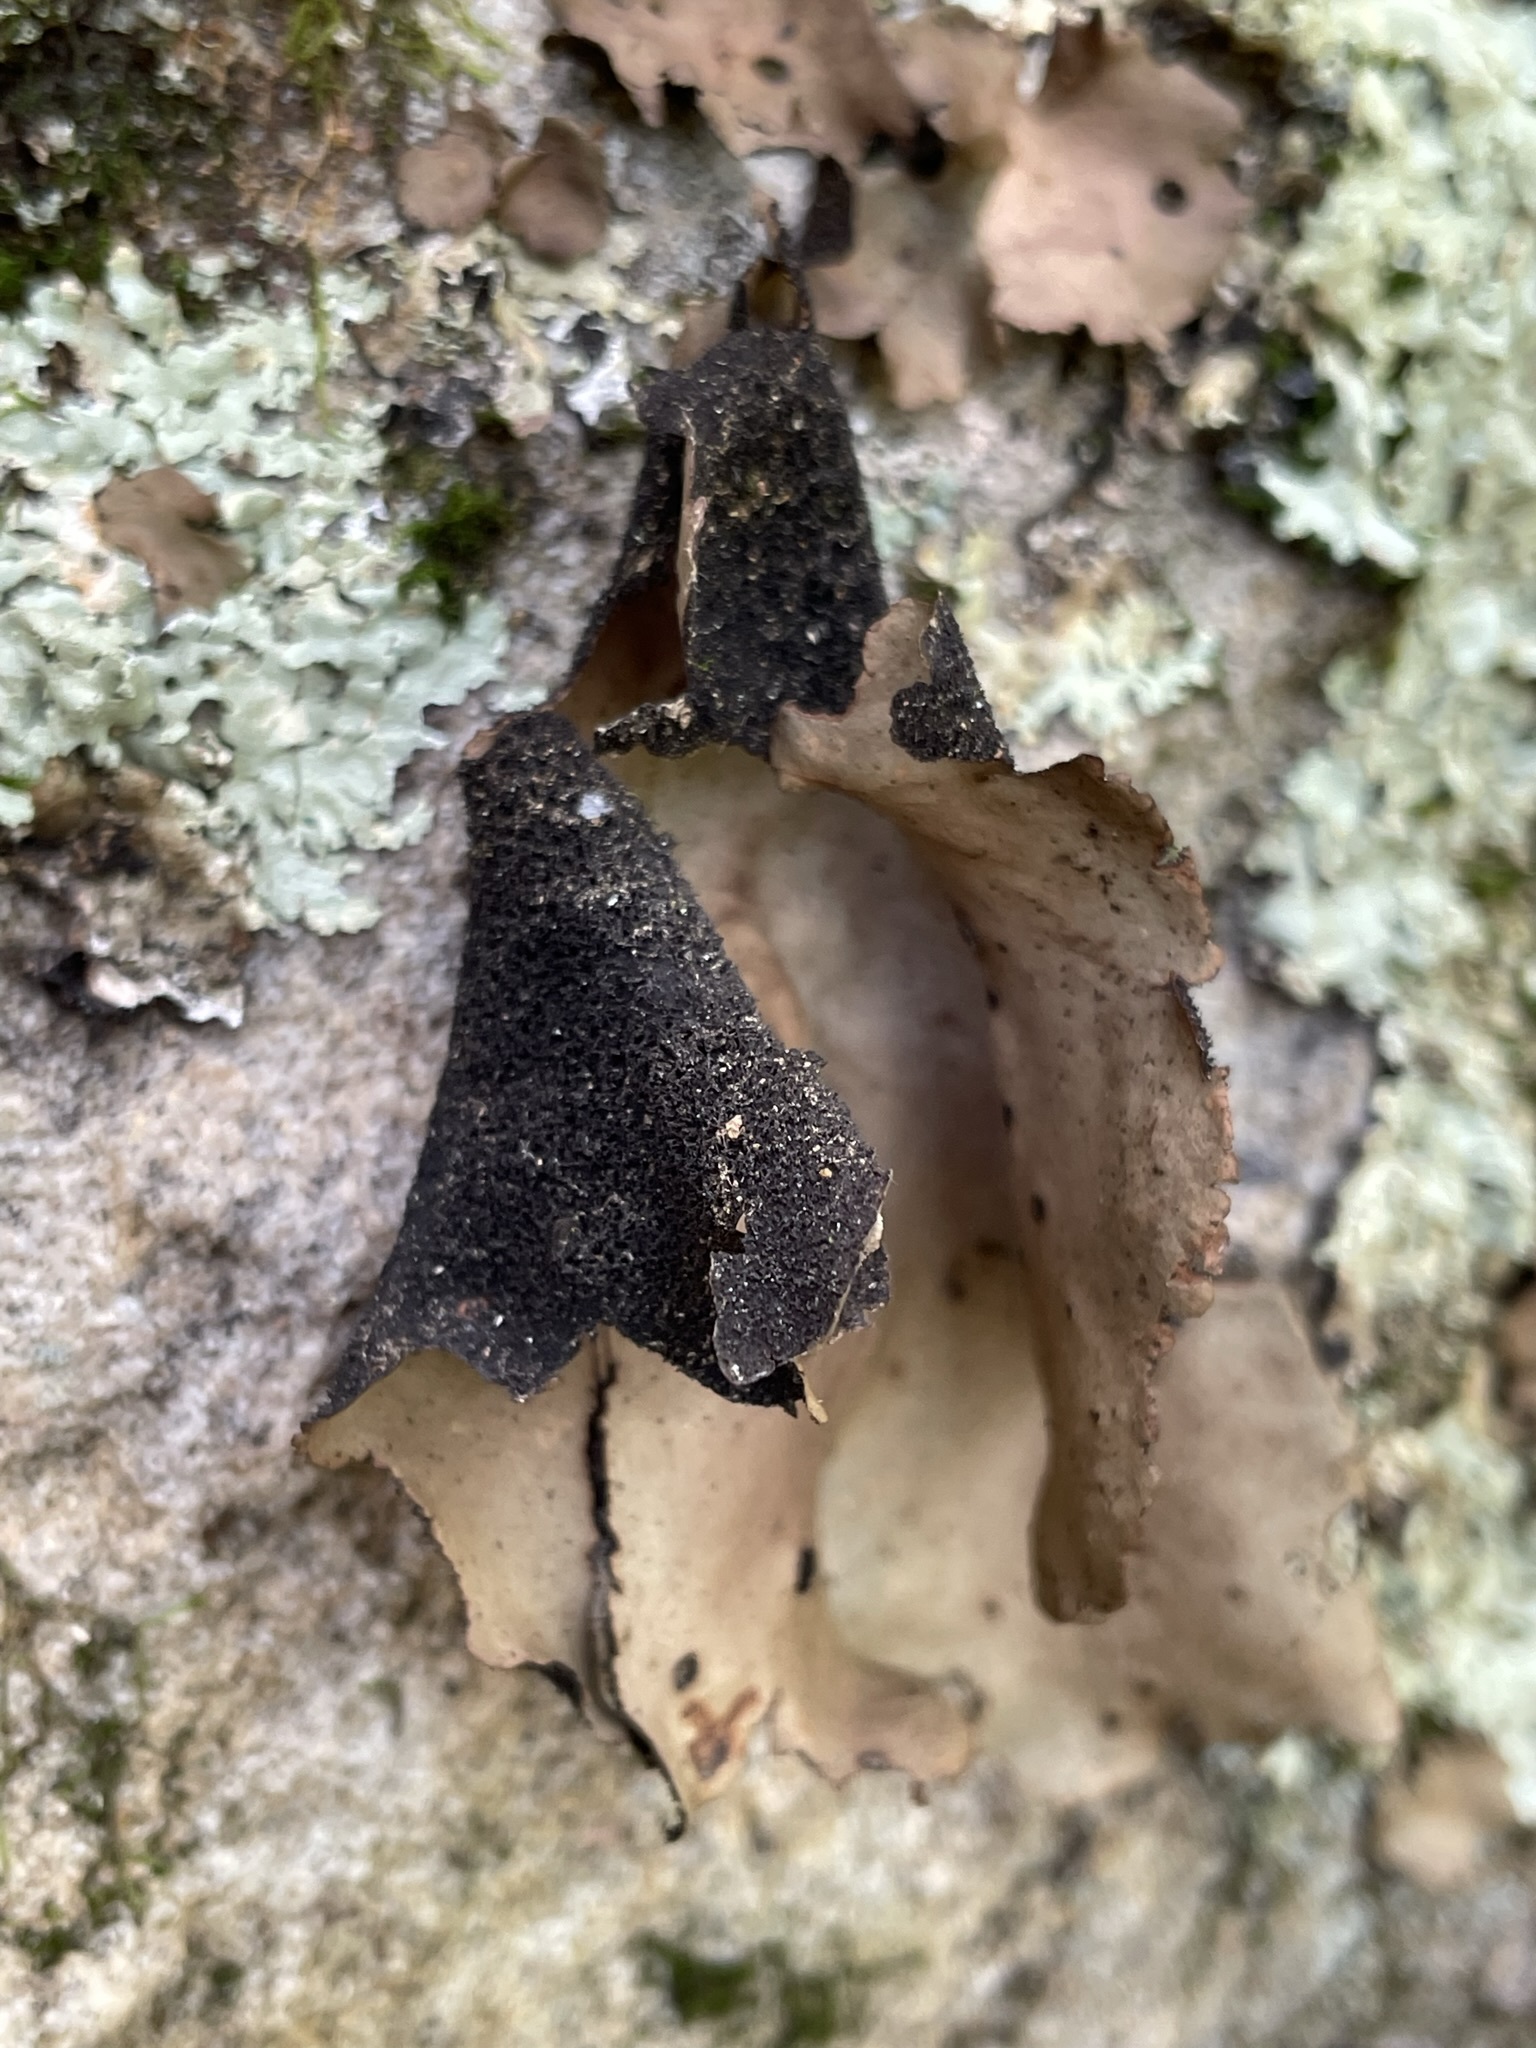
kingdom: Fungi
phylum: Ascomycota
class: Lecanoromycetes
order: Umbilicariales
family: Umbilicariaceae
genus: Umbilicaria
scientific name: Umbilicaria mammulata
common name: Smooth rock tripe
